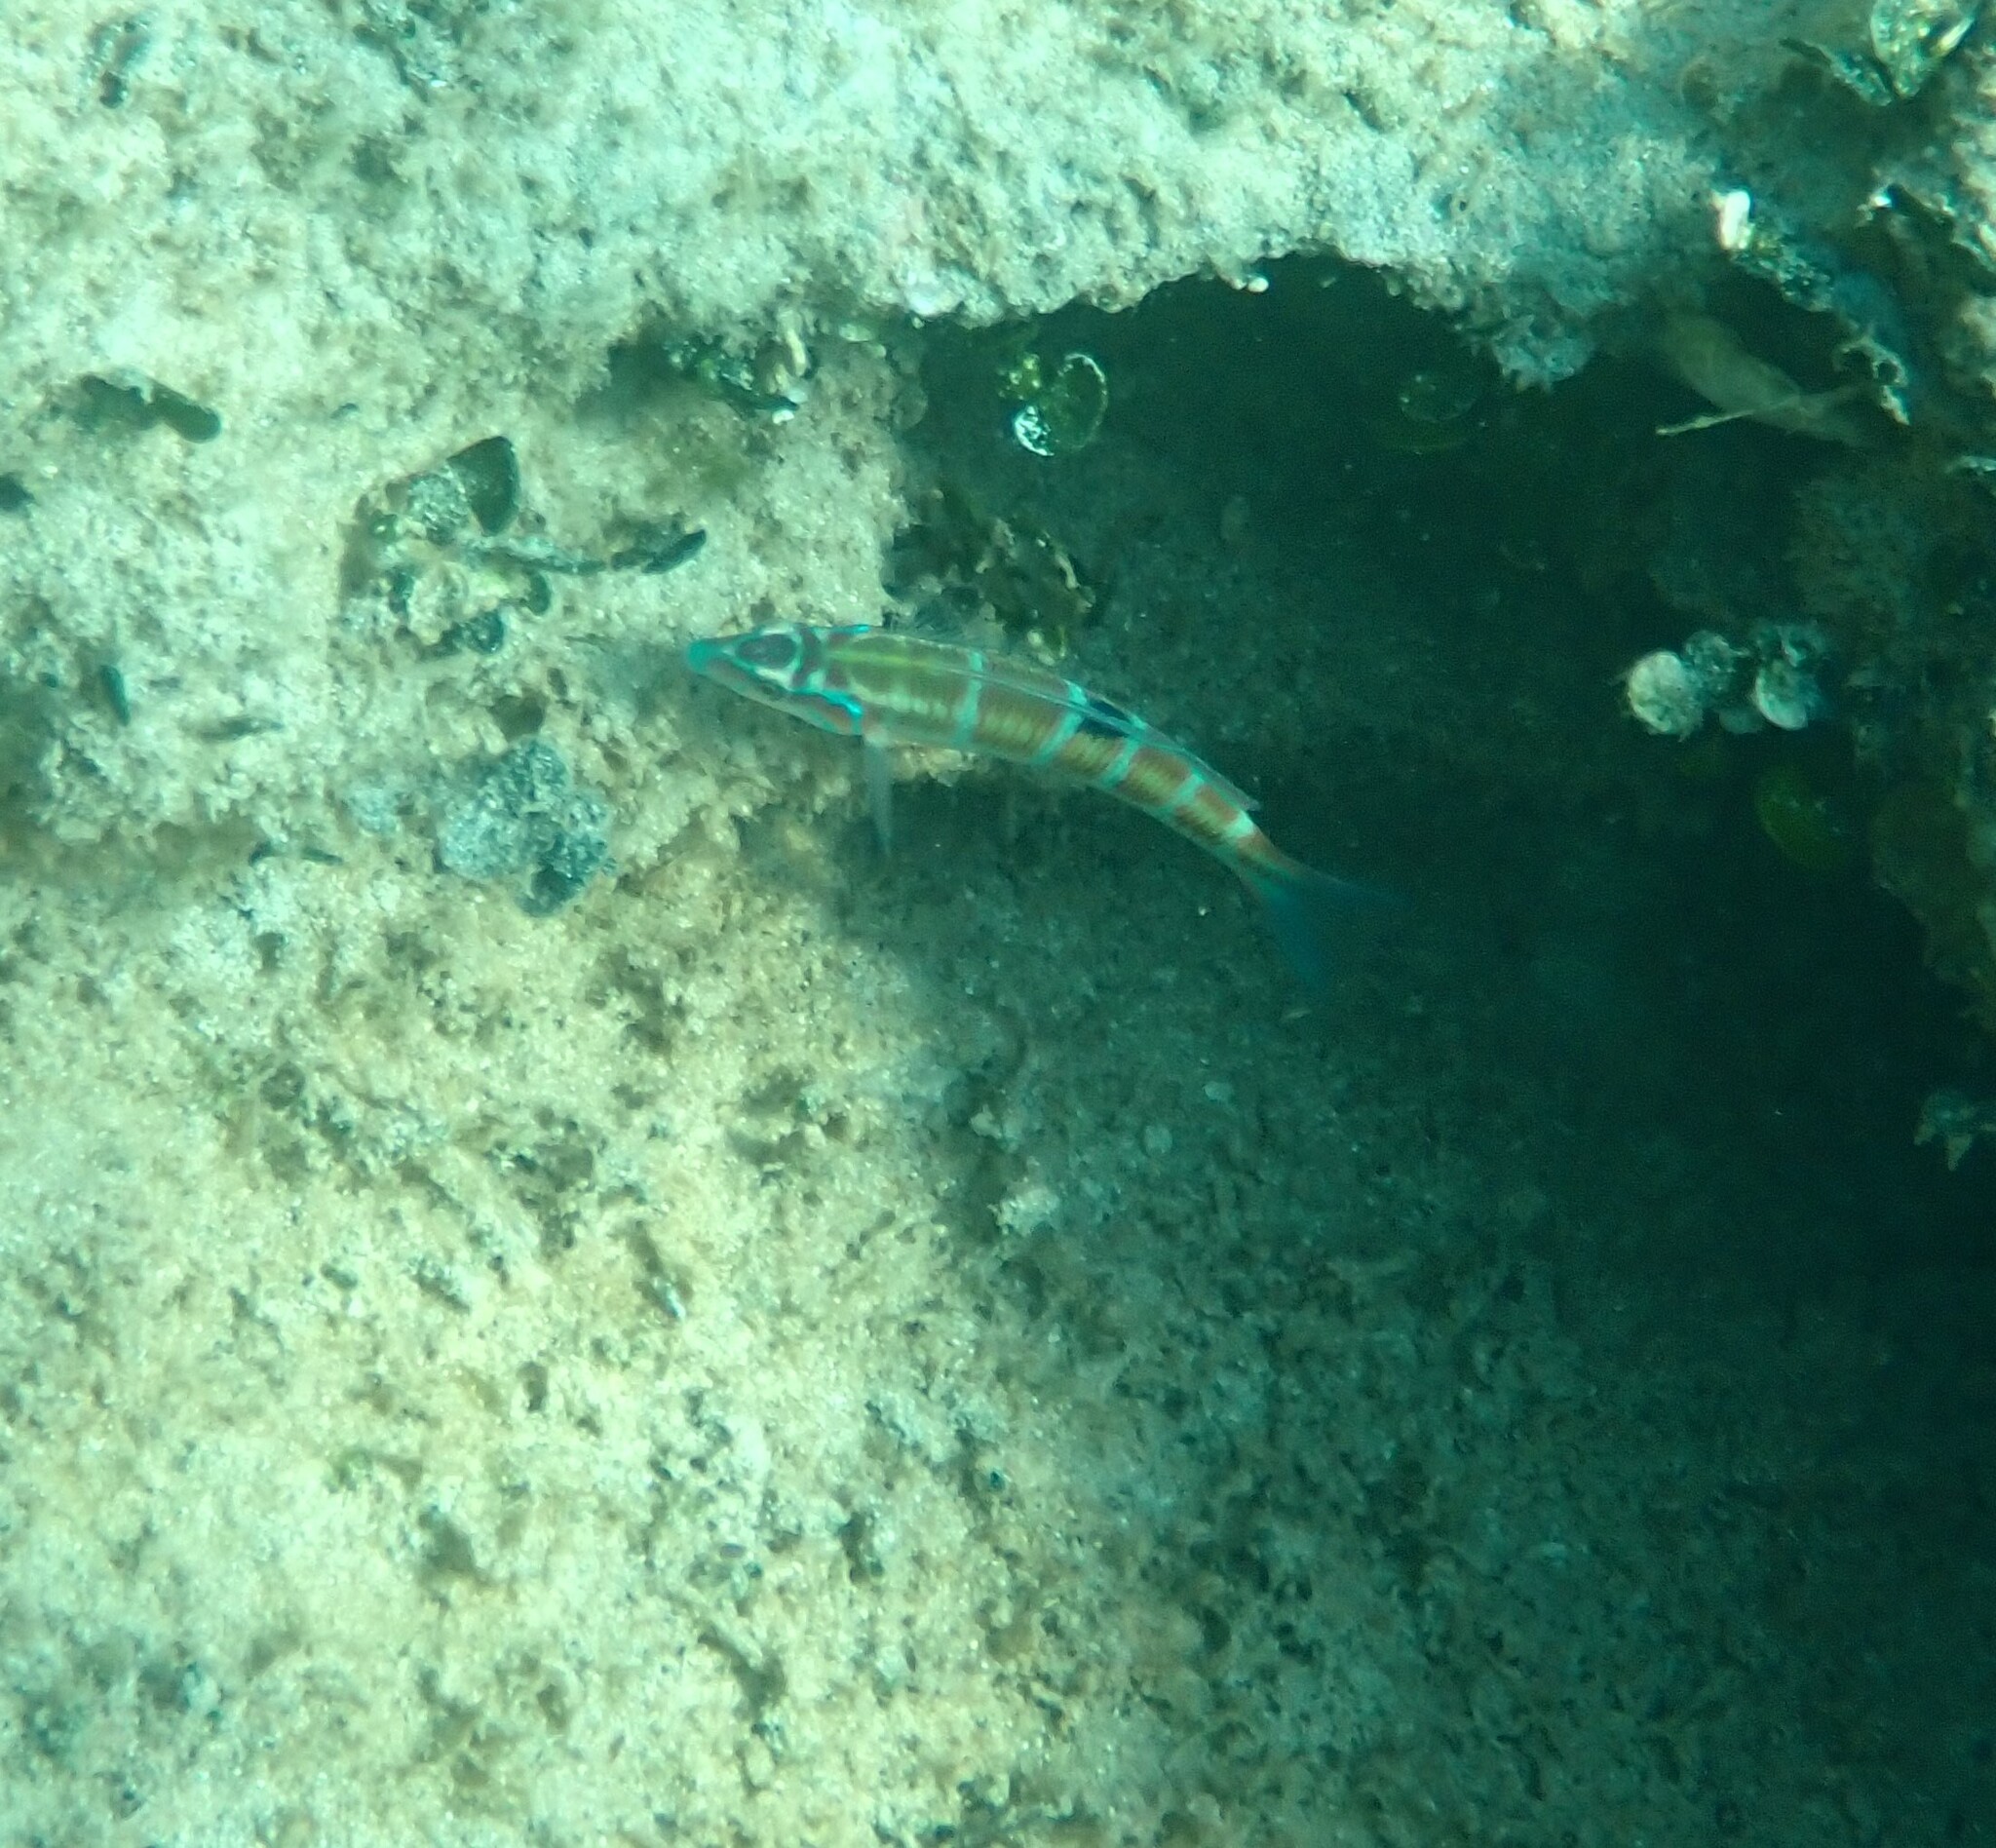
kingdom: Animalia
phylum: Chordata
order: Perciformes
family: Labridae
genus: Thalassoma
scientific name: Thalassoma pavo
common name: Ornate wrasse
